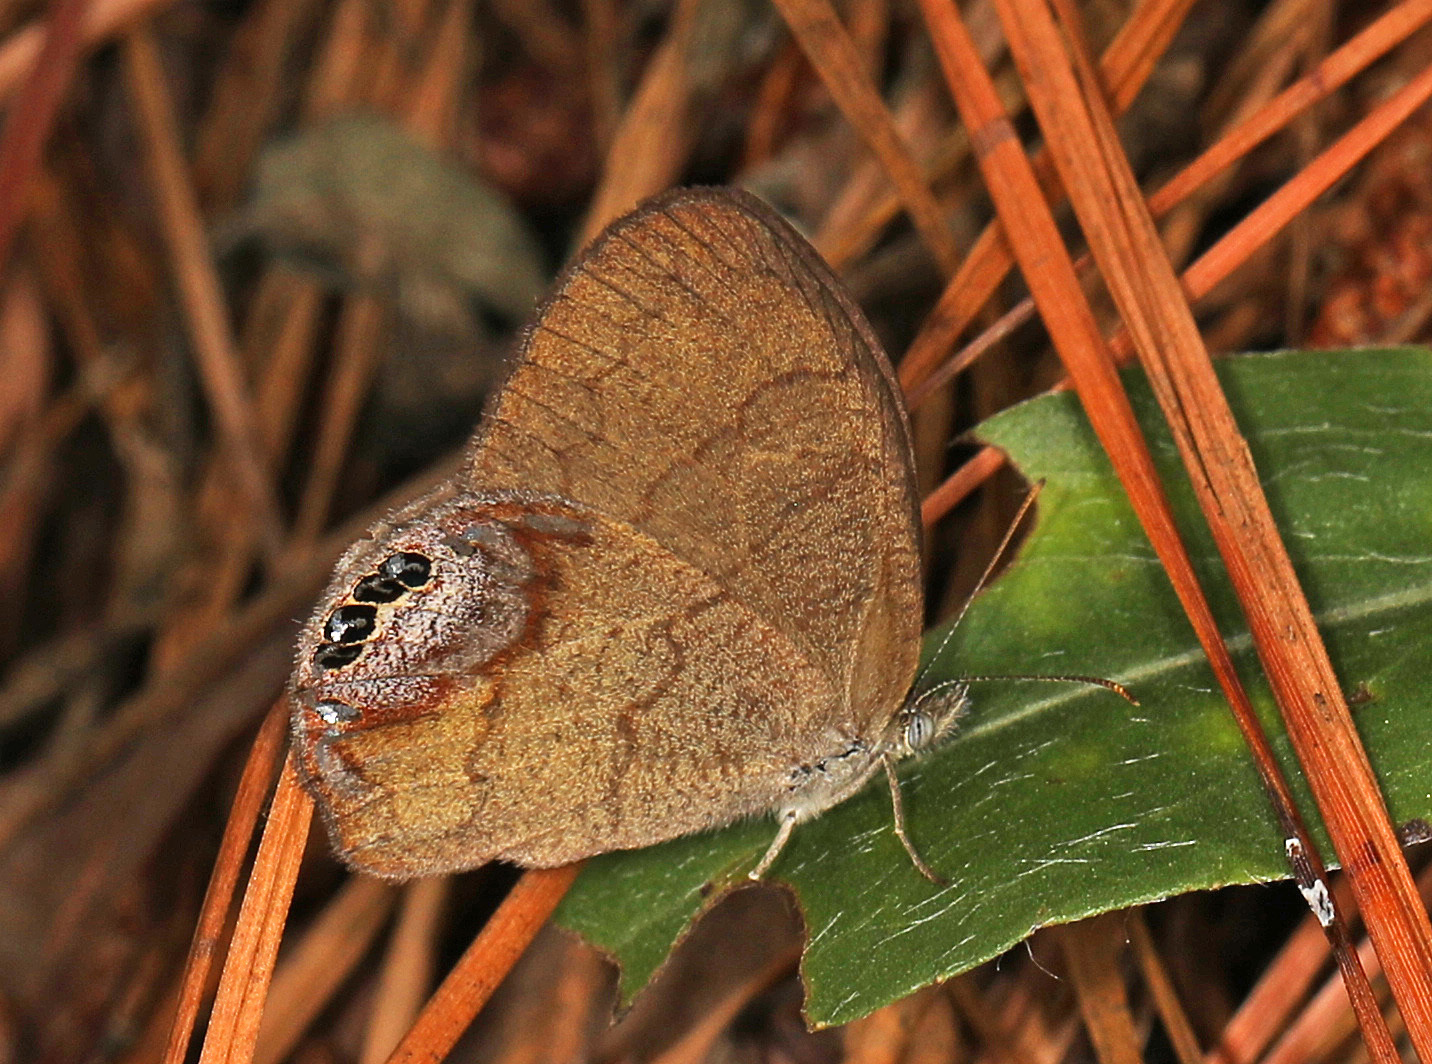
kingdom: Animalia
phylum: Arthropoda
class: Insecta
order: Lepidoptera
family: Nymphalidae
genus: Euptychia
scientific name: Euptychia cornelius
